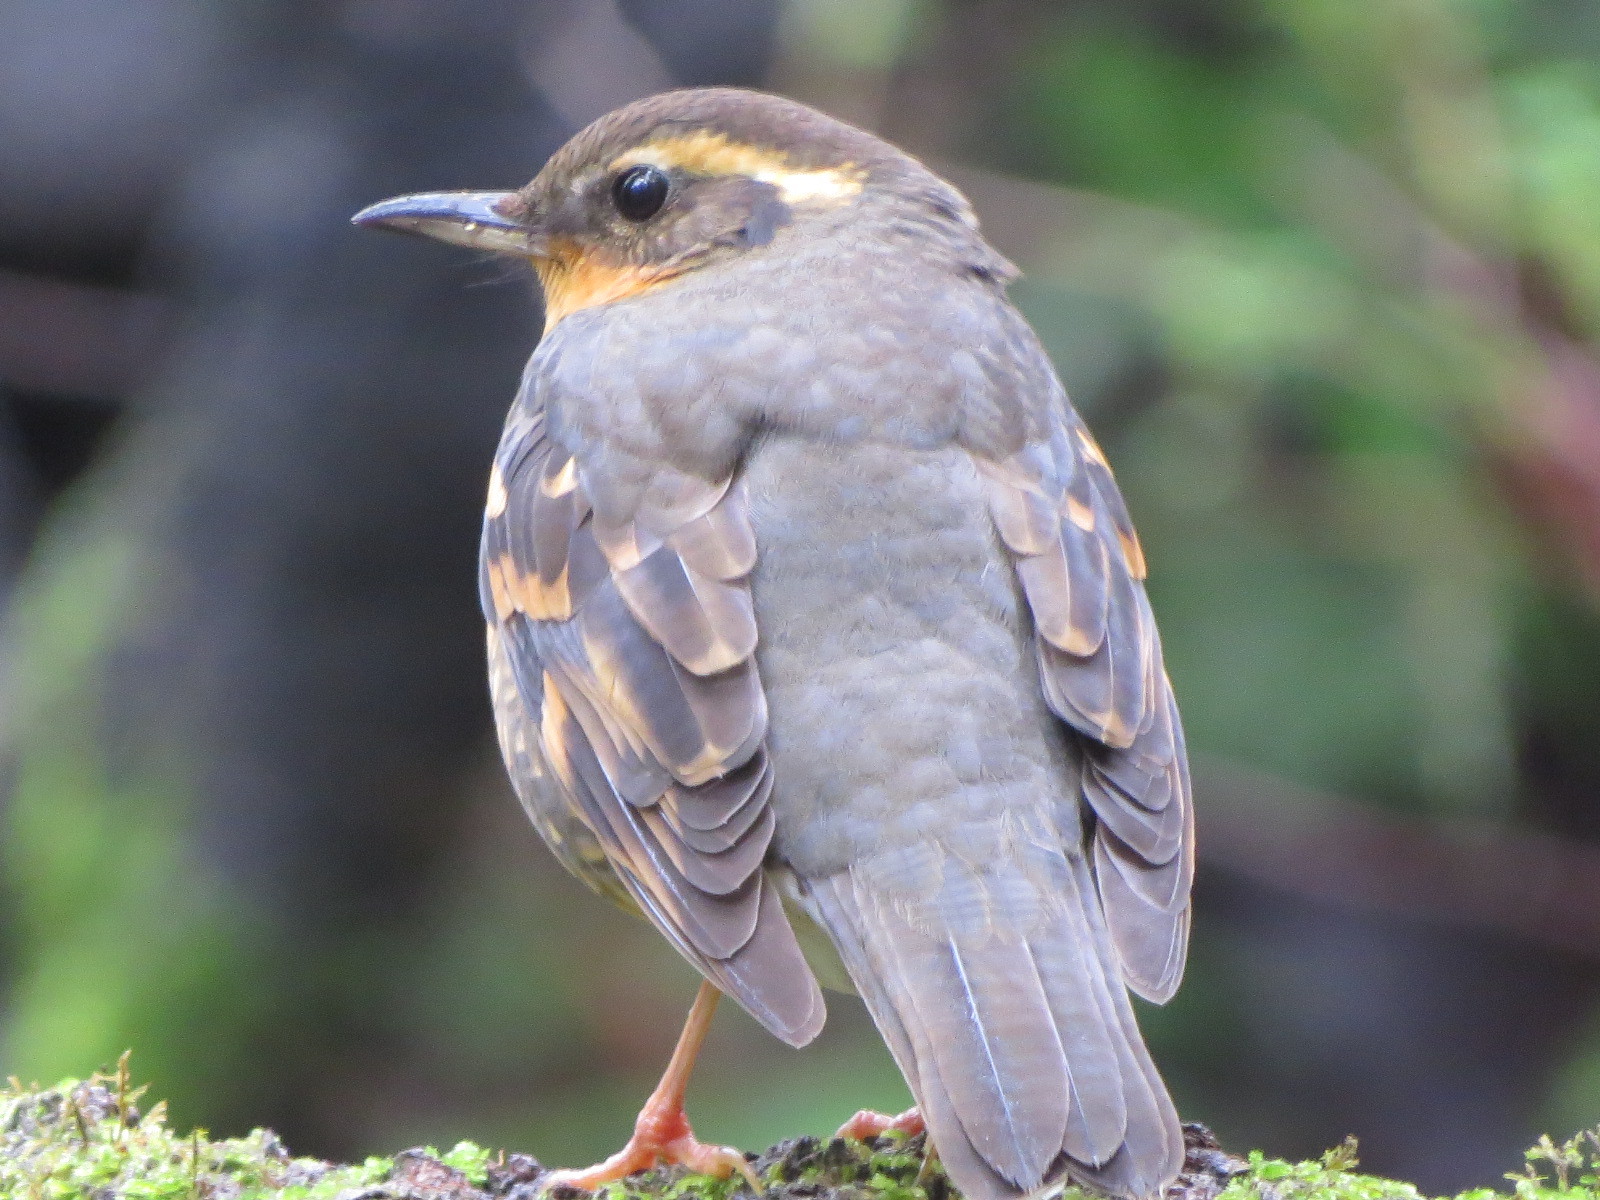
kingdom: Animalia
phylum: Chordata
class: Aves
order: Passeriformes
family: Turdidae
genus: Ixoreus
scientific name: Ixoreus naevius
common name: Varied thrush
